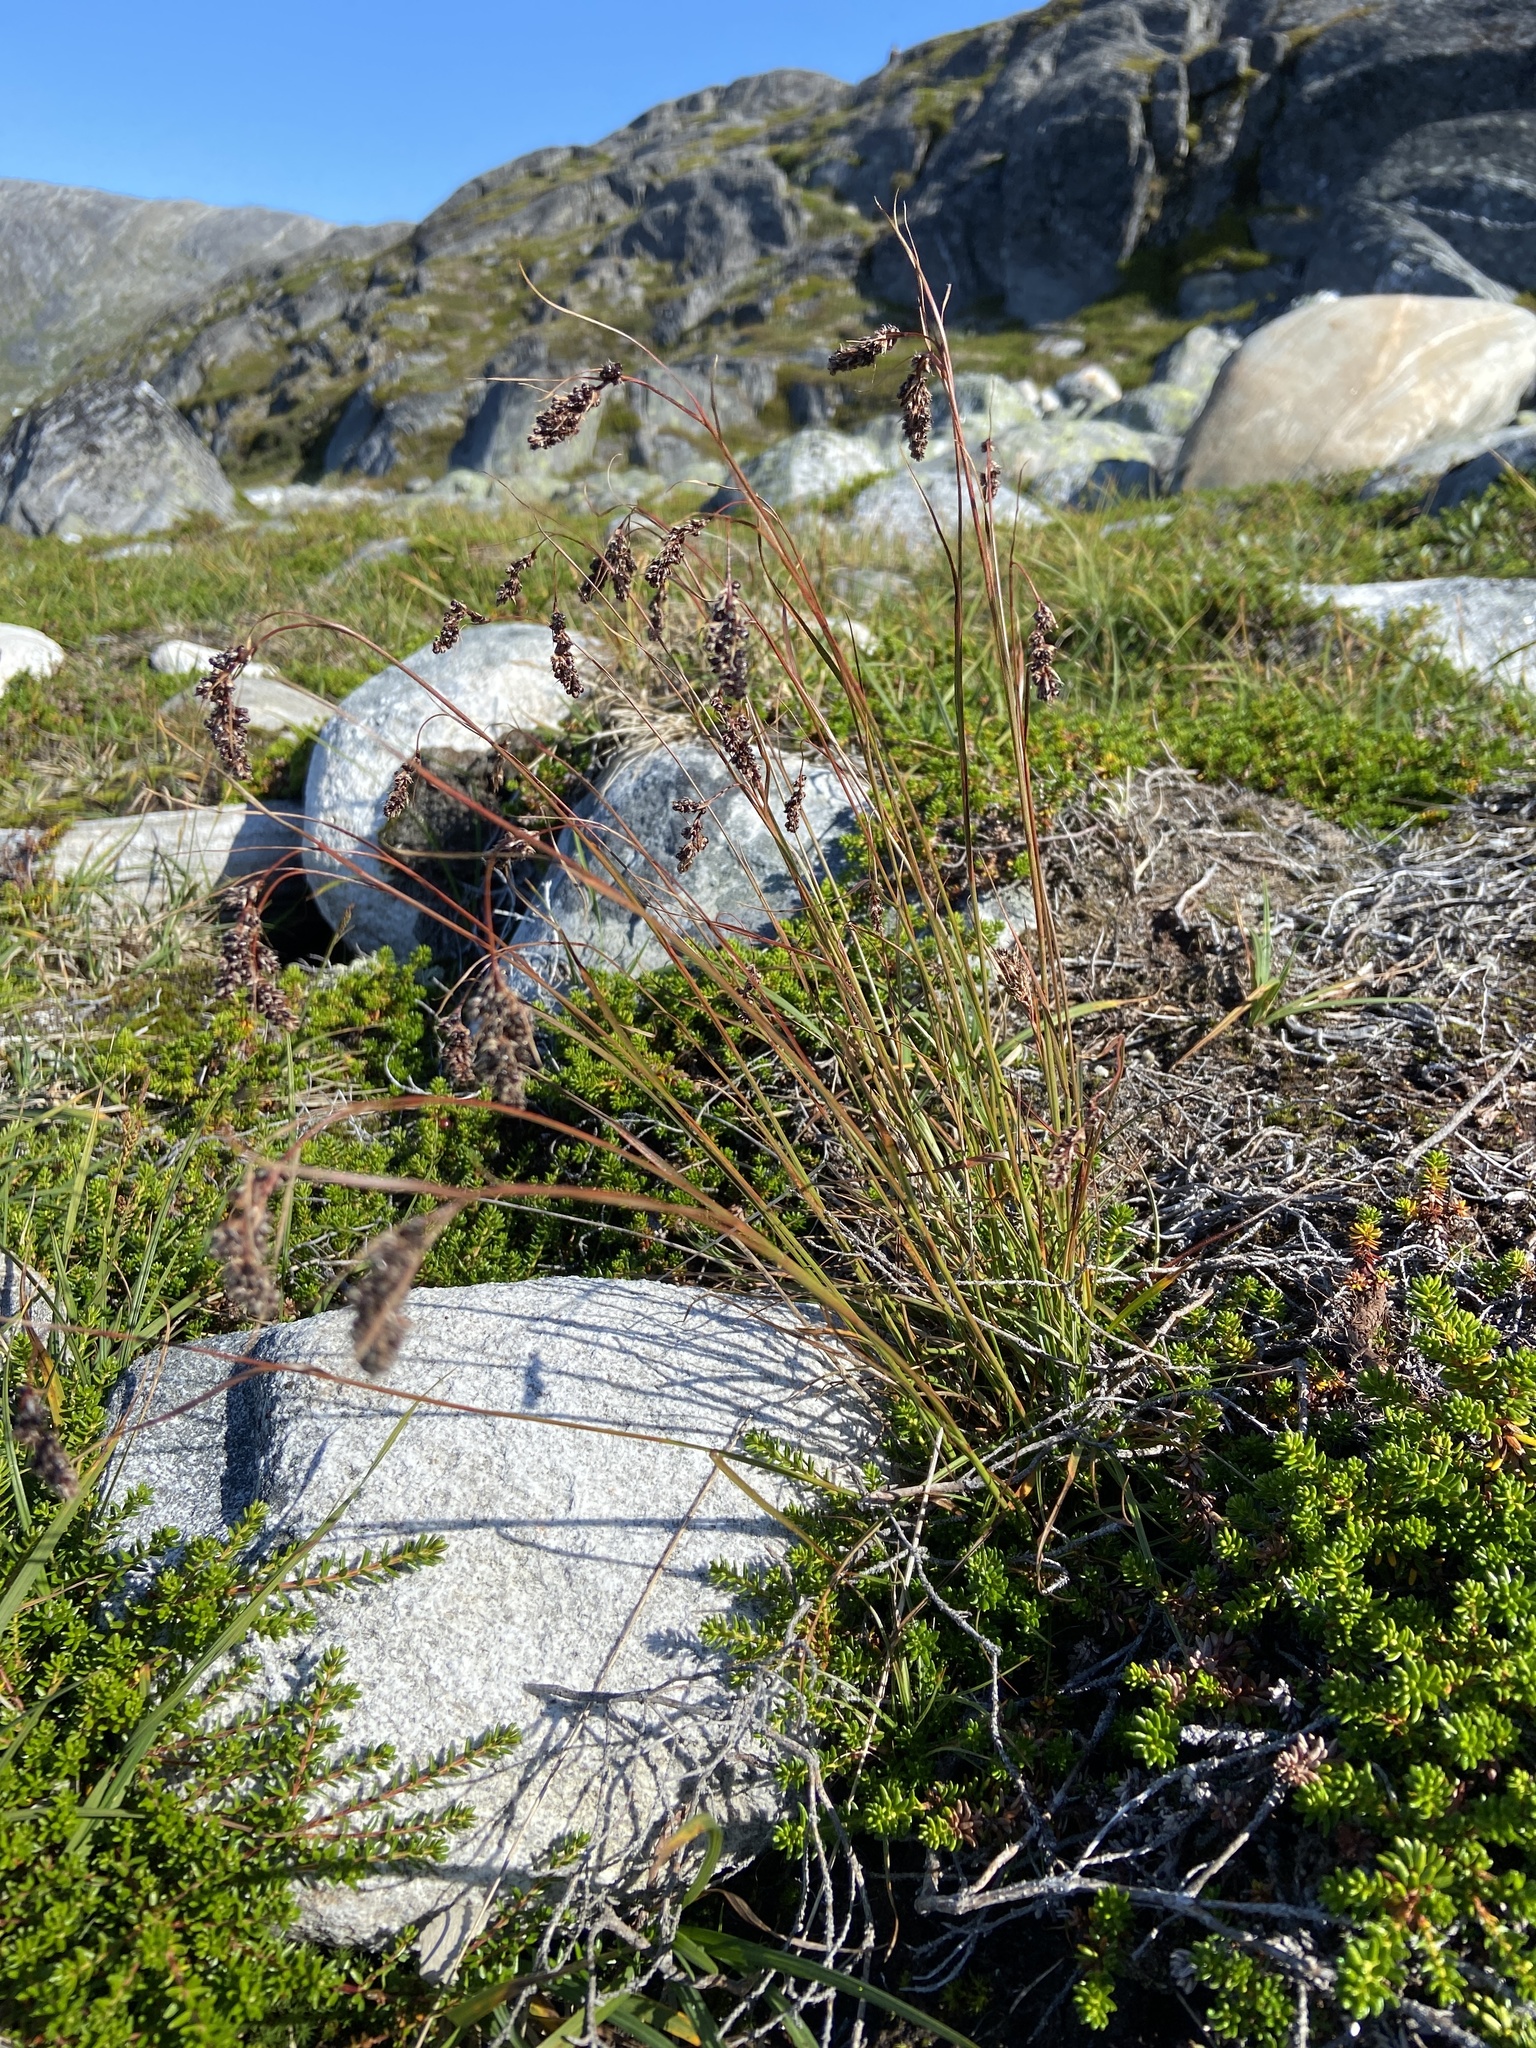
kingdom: Plantae
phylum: Tracheophyta
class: Liliopsida
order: Poales
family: Juncaceae
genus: Luzula
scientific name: Luzula spicata
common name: Spiked wood-rush
